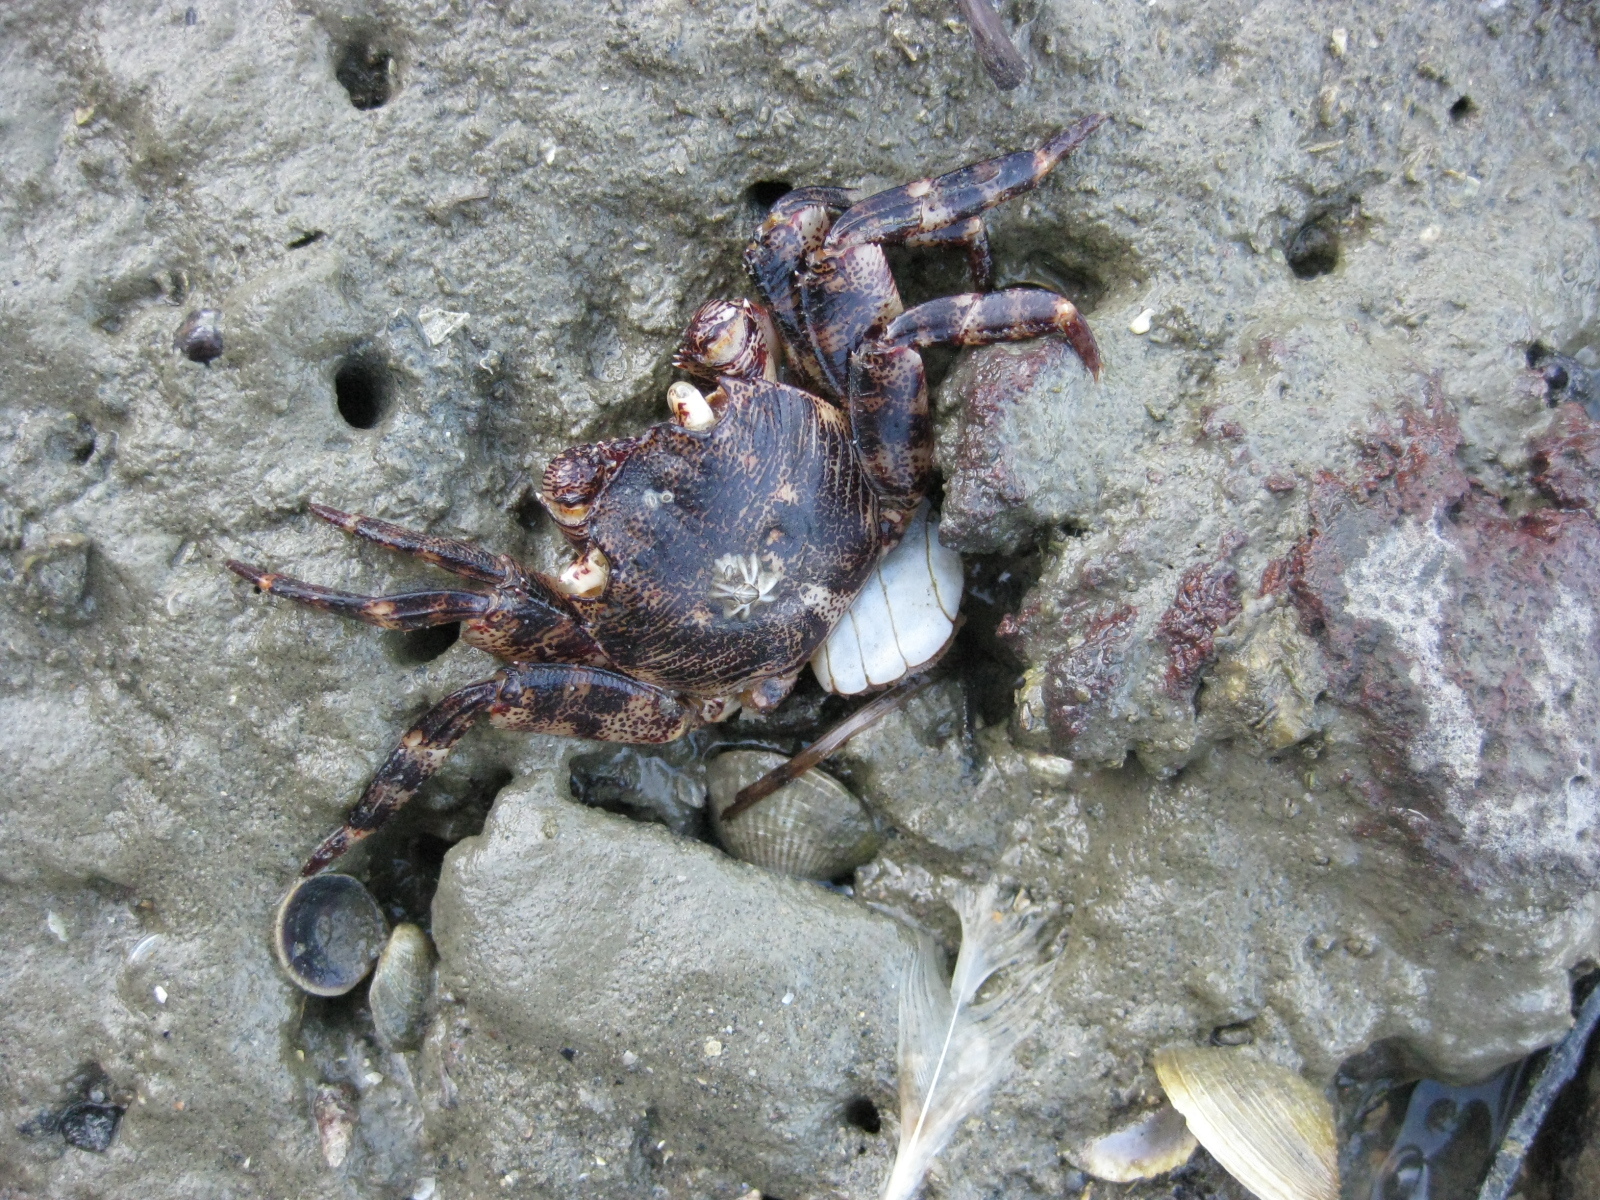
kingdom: Animalia
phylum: Arthropoda
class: Malacostraca
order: Decapoda
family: Grapsidae
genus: Leptograpsus
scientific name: Leptograpsus variegatus
